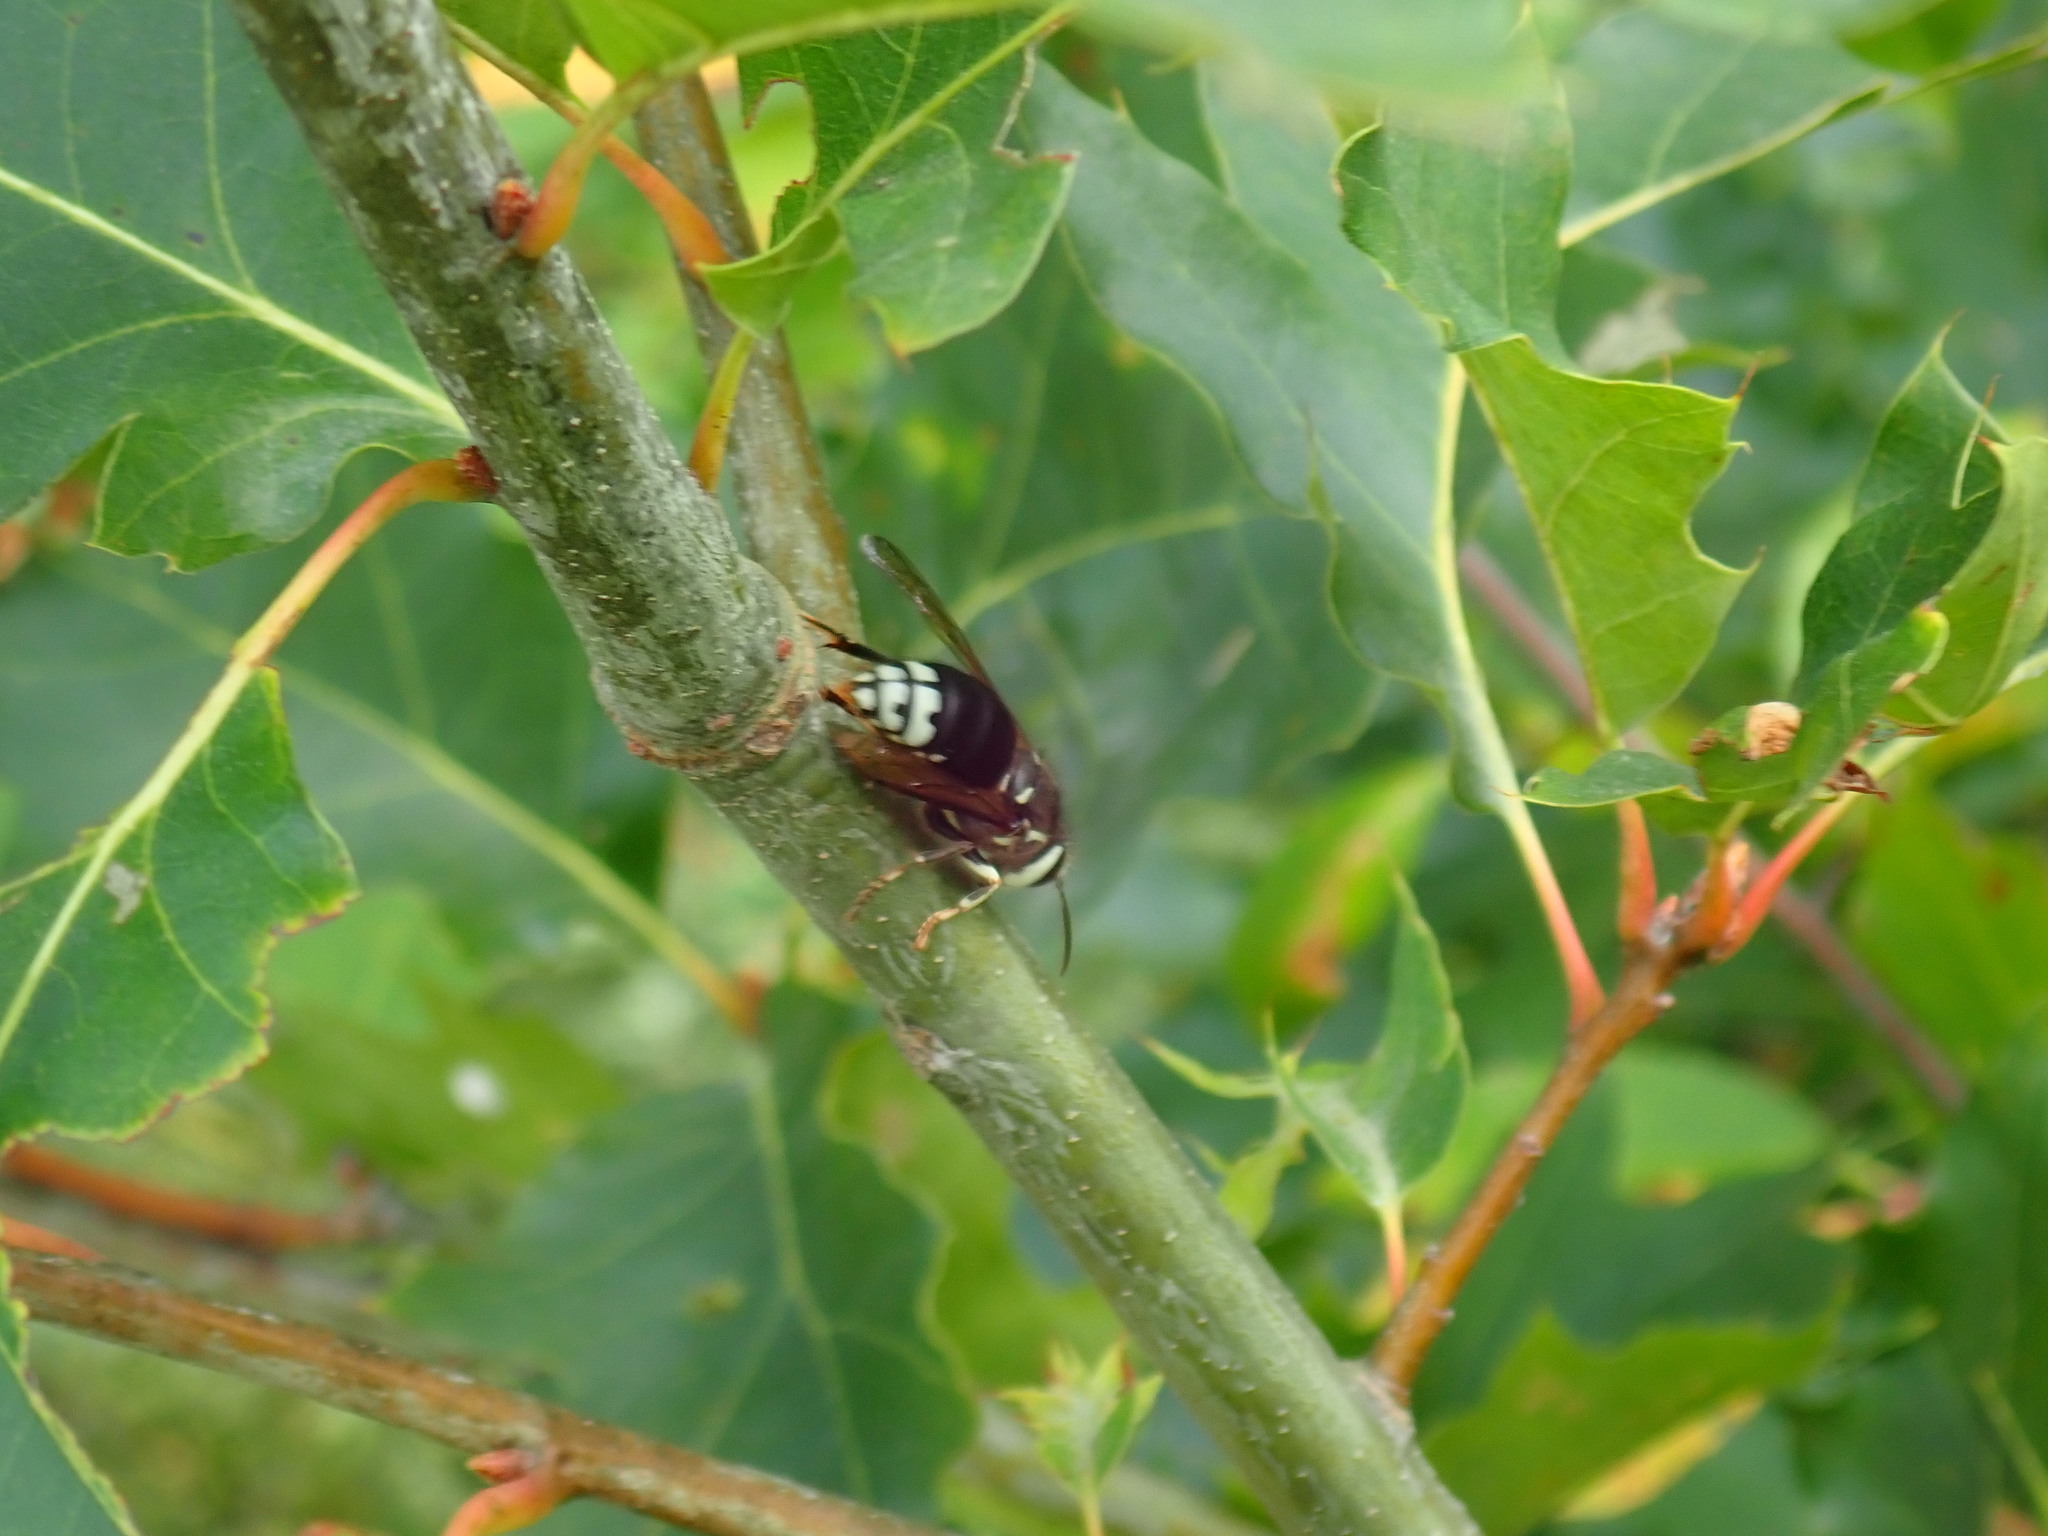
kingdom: Animalia
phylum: Arthropoda
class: Insecta
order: Hymenoptera
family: Vespidae
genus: Dolichovespula
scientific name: Dolichovespula maculata
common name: Bald-faced hornet
